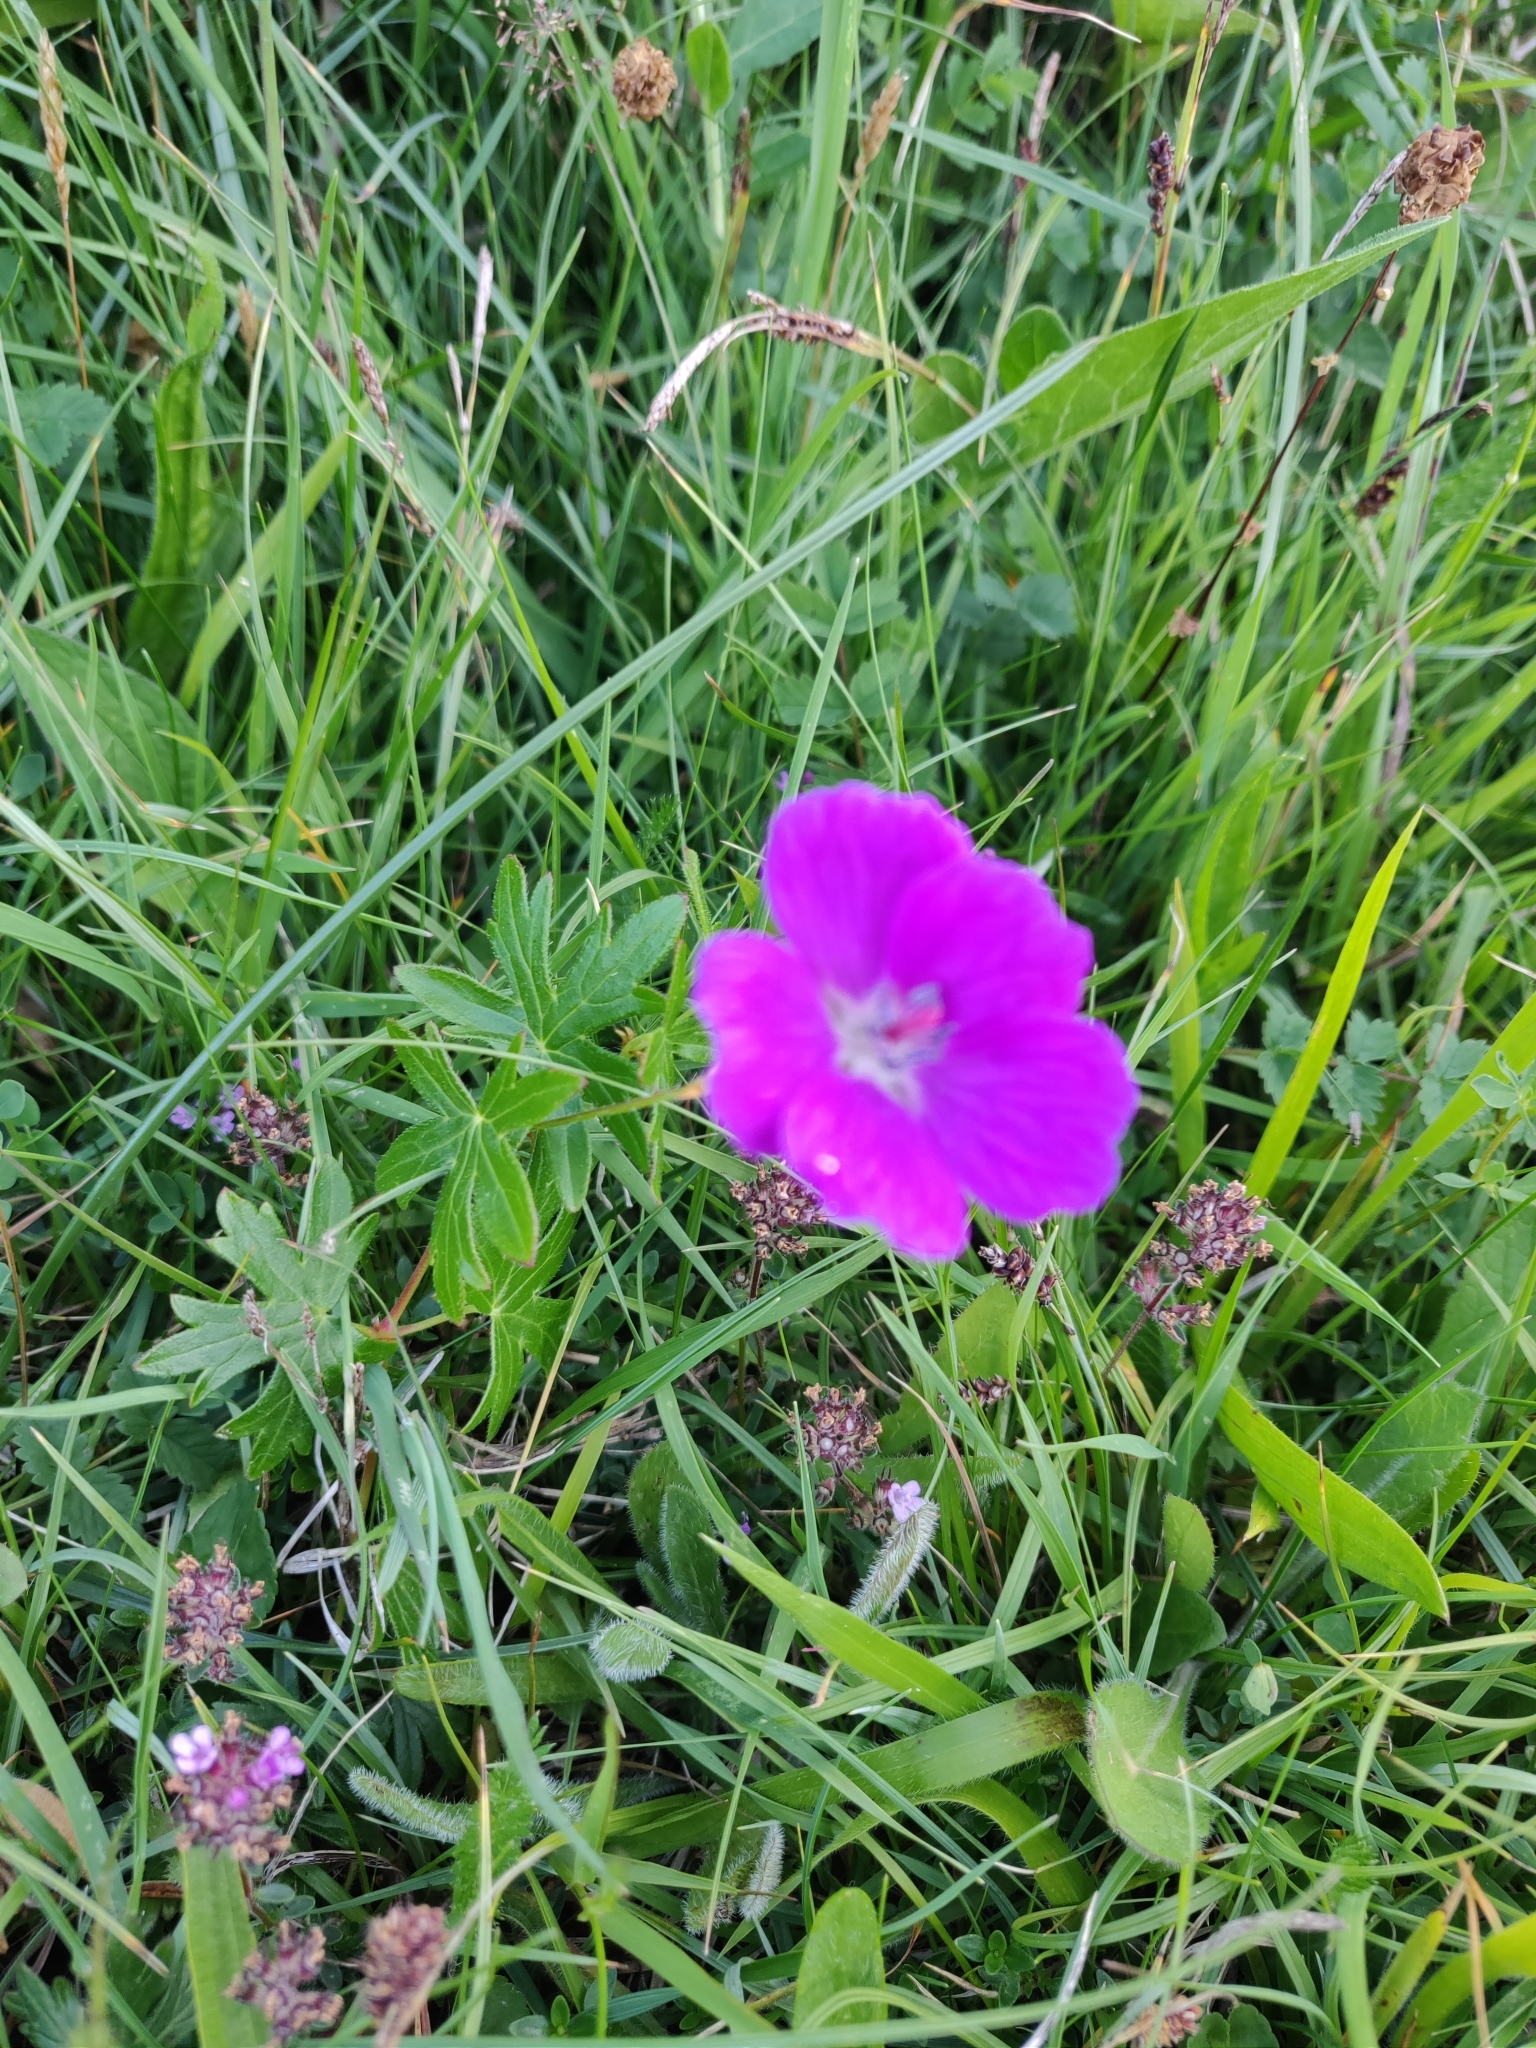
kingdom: Plantae
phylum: Tracheophyta
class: Magnoliopsida
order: Geraniales
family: Geraniaceae
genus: Geranium
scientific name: Geranium sanguineum
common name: Bloody crane's-bill
